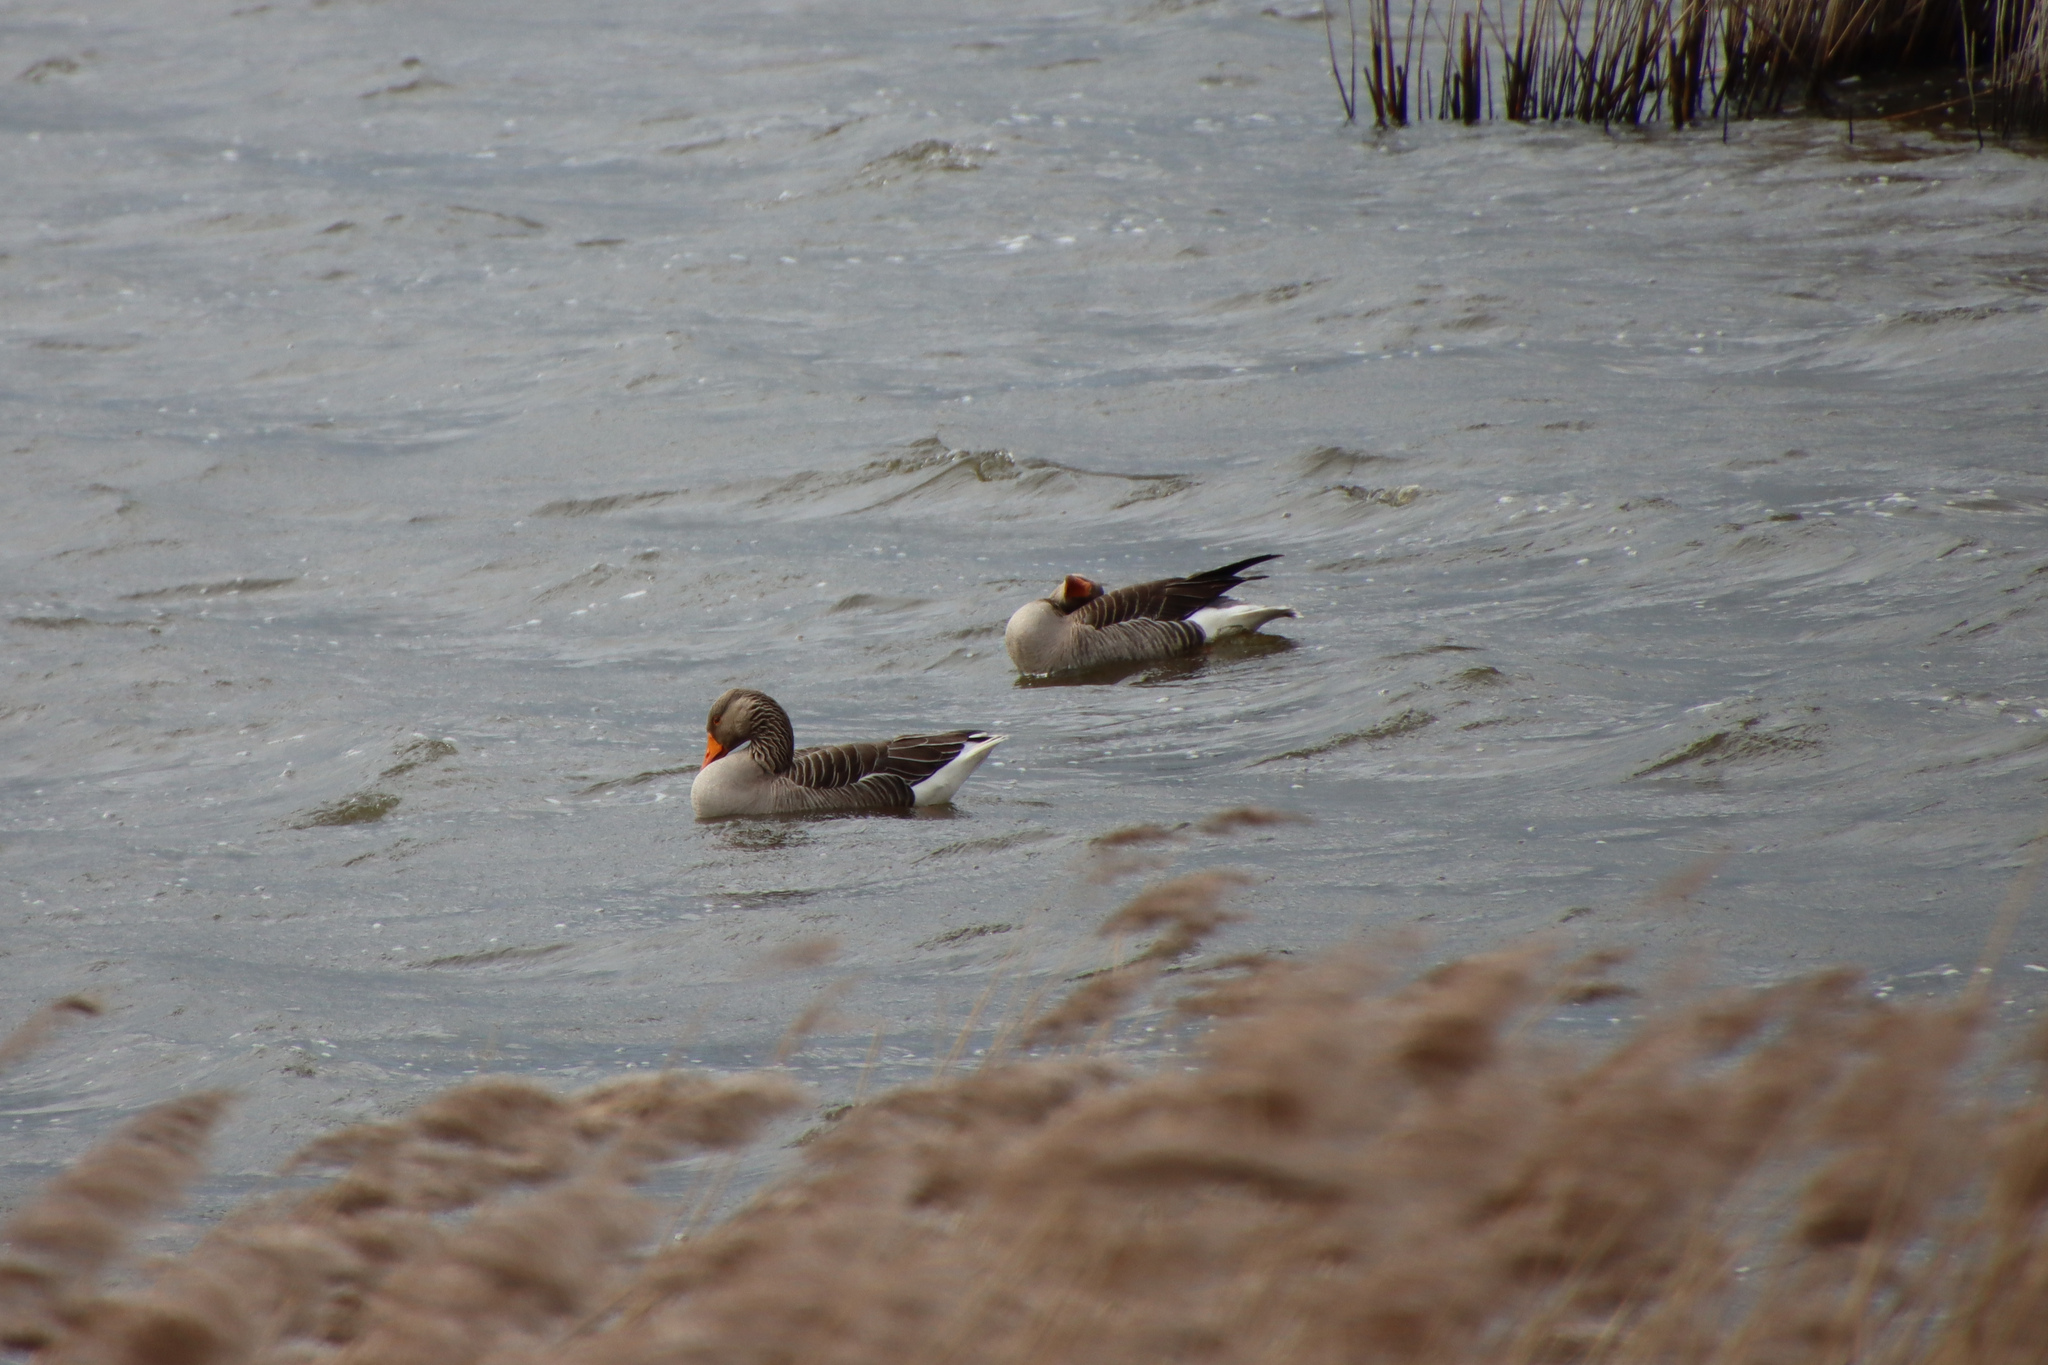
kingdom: Animalia
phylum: Chordata
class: Aves
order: Anseriformes
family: Anatidae
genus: Anser
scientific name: Anser anser
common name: Greylag goose
